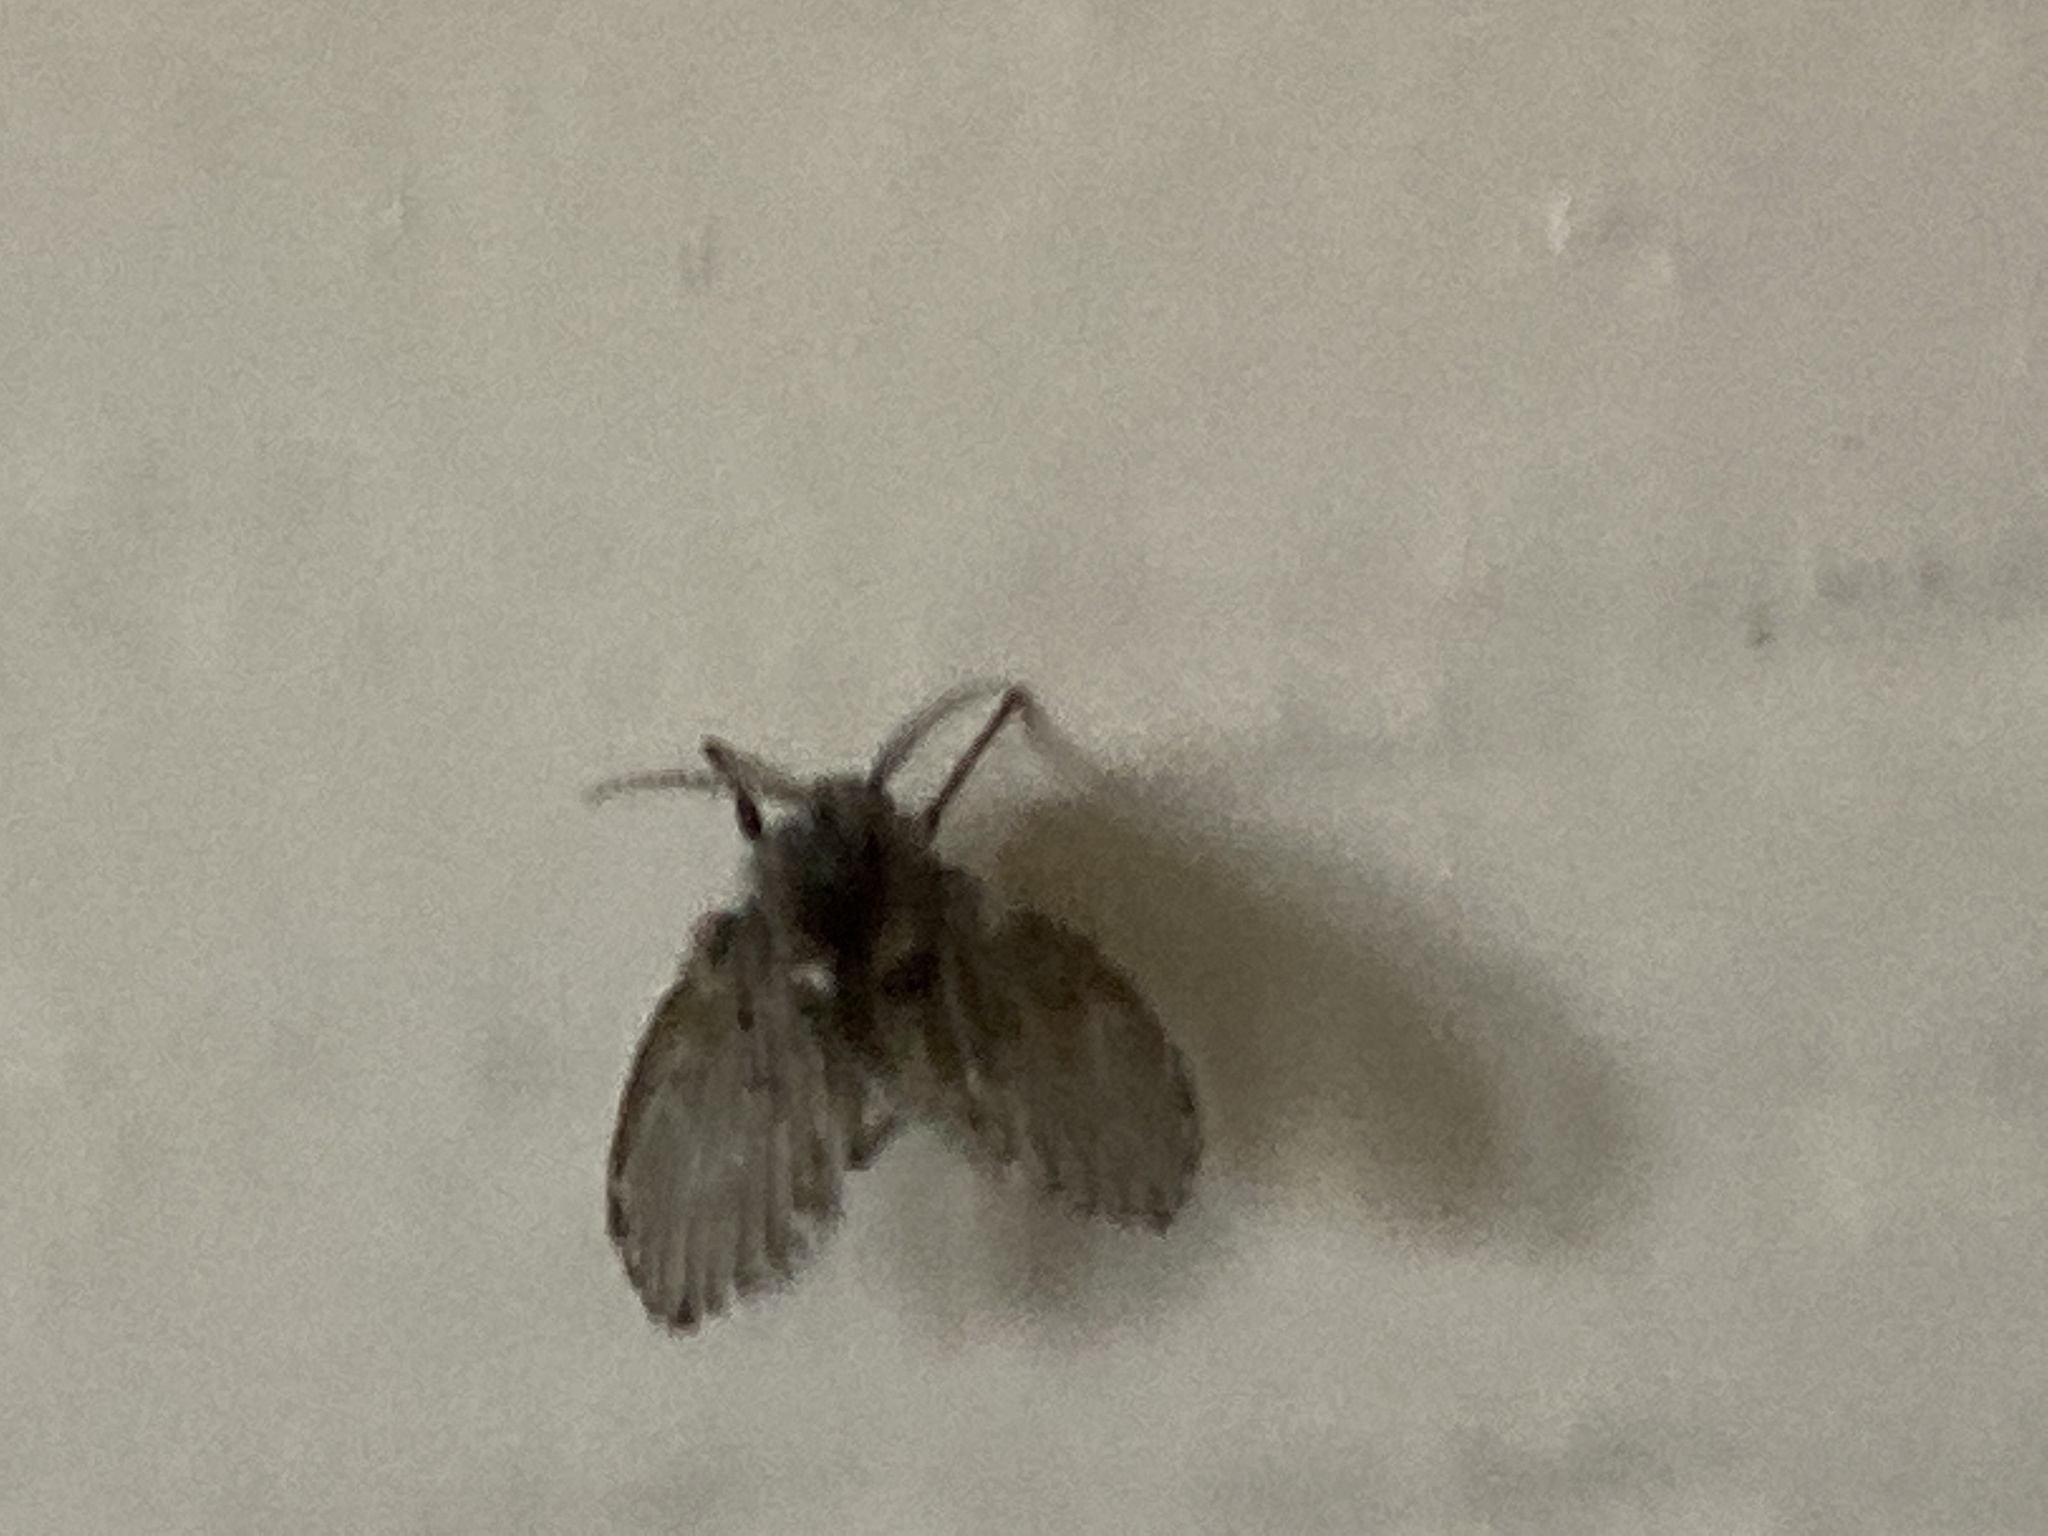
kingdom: Animalia
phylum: Arthropoda
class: Insecta
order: Diptera
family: Psychodidae
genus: Clogmia
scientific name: Clogmia albipunctatus
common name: White-spotted moth fly
